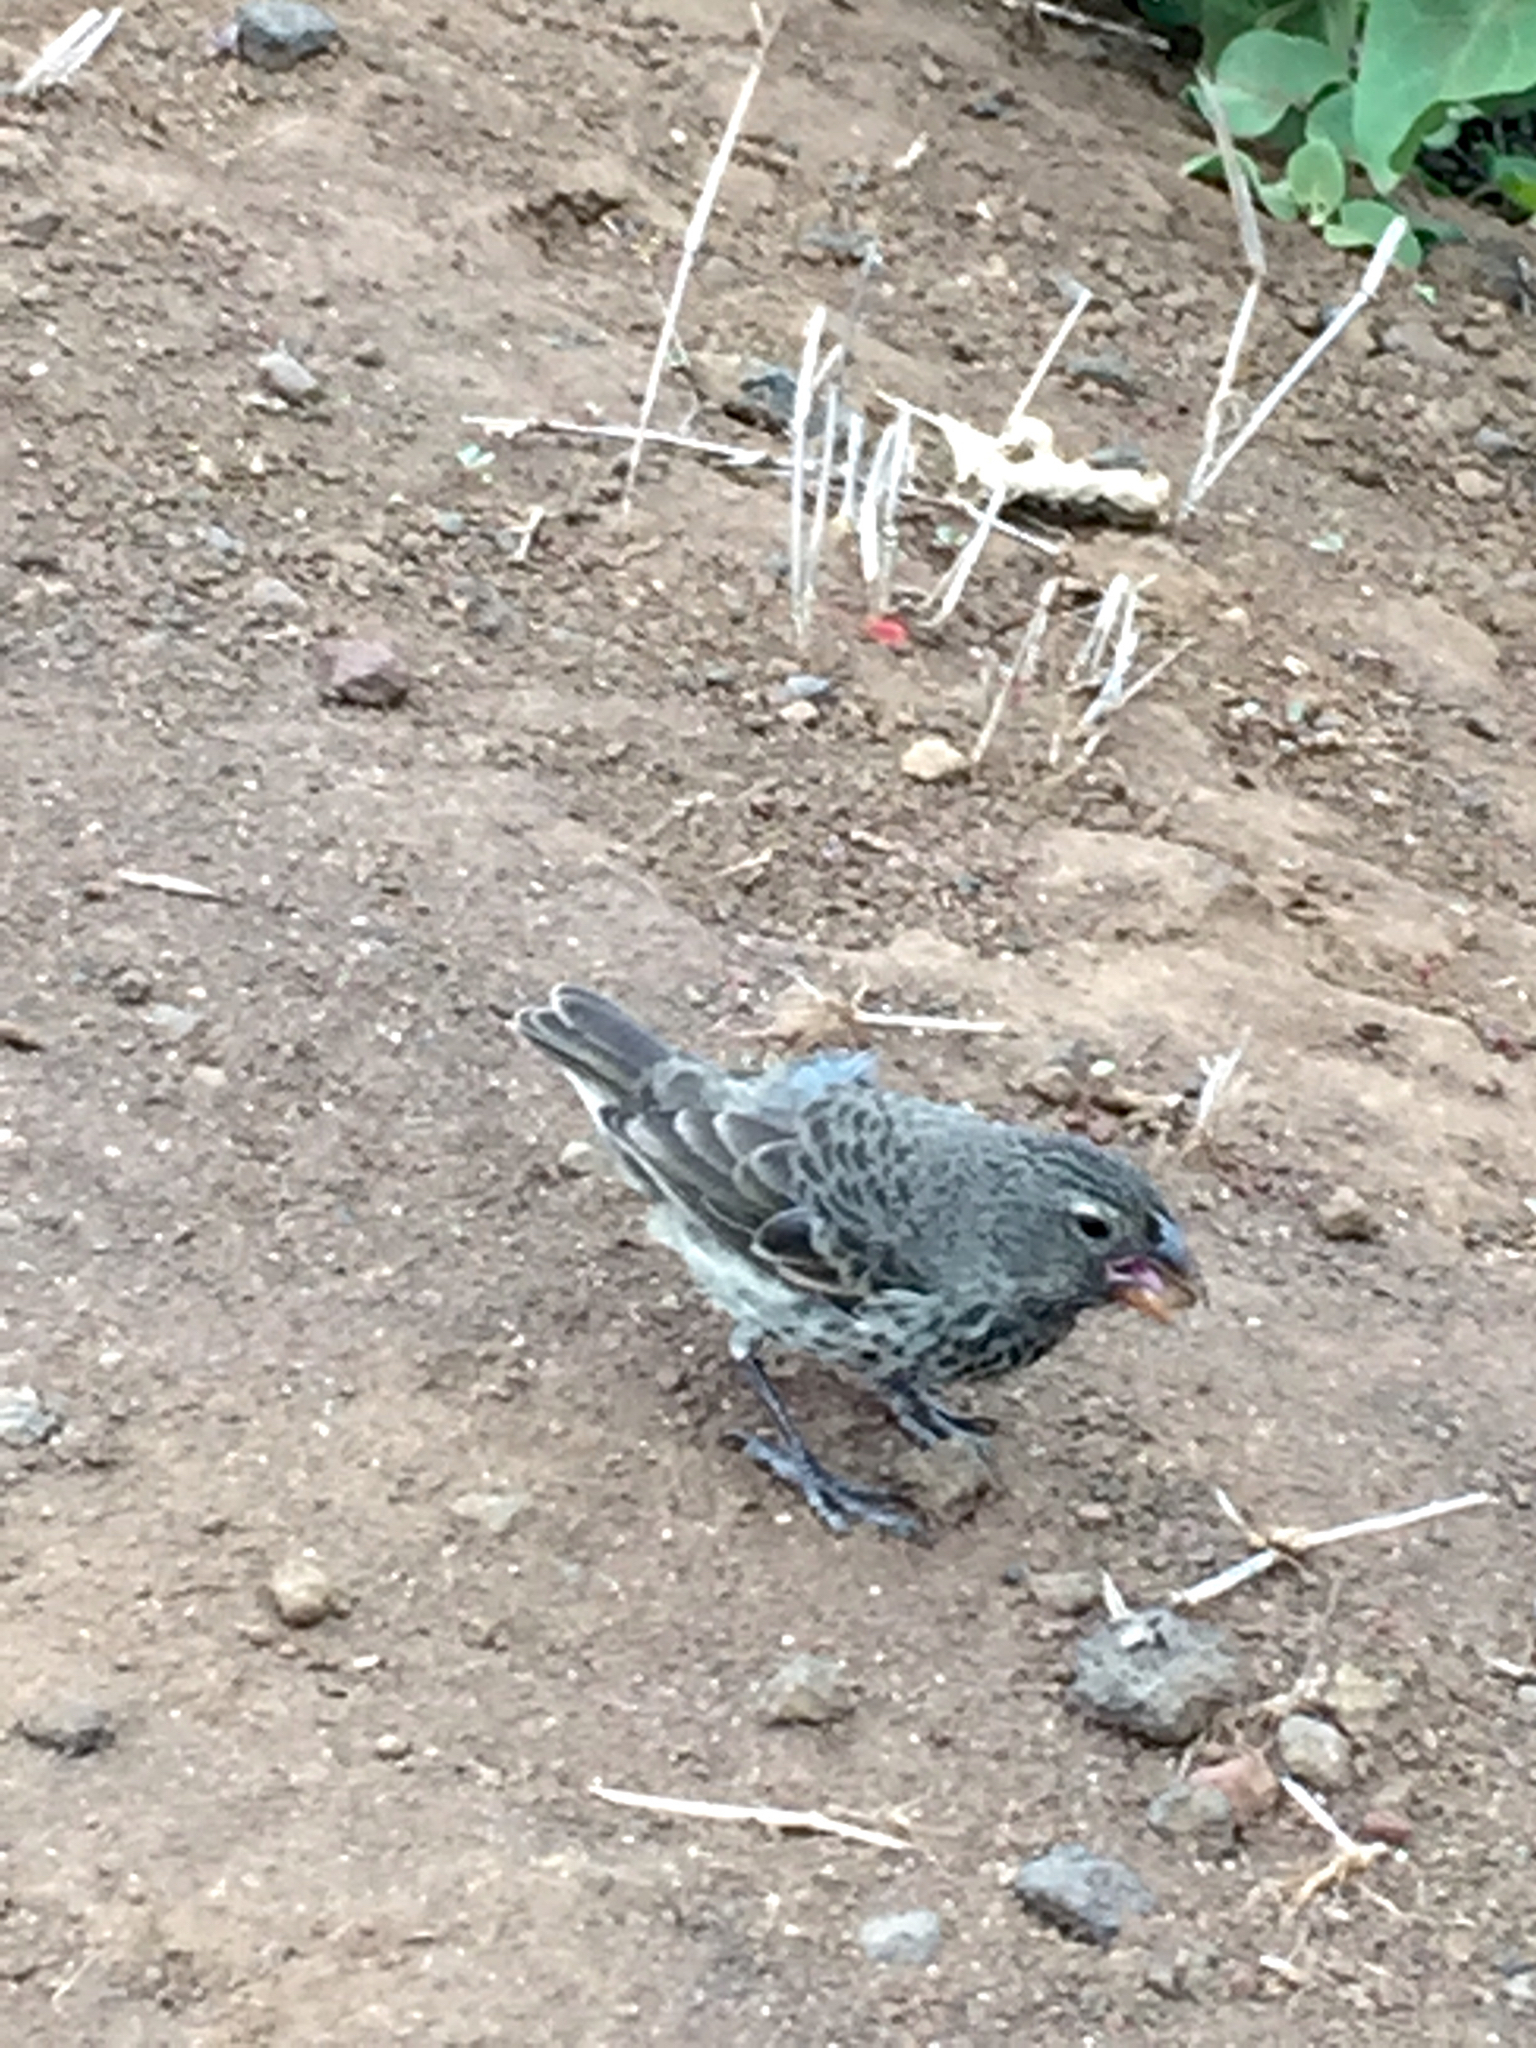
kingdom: Animalia
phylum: Chordata
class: Aves
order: Passeriformes
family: Thraupidae
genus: Geospiza
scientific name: Geospiza fortis
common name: Medium ground finch
